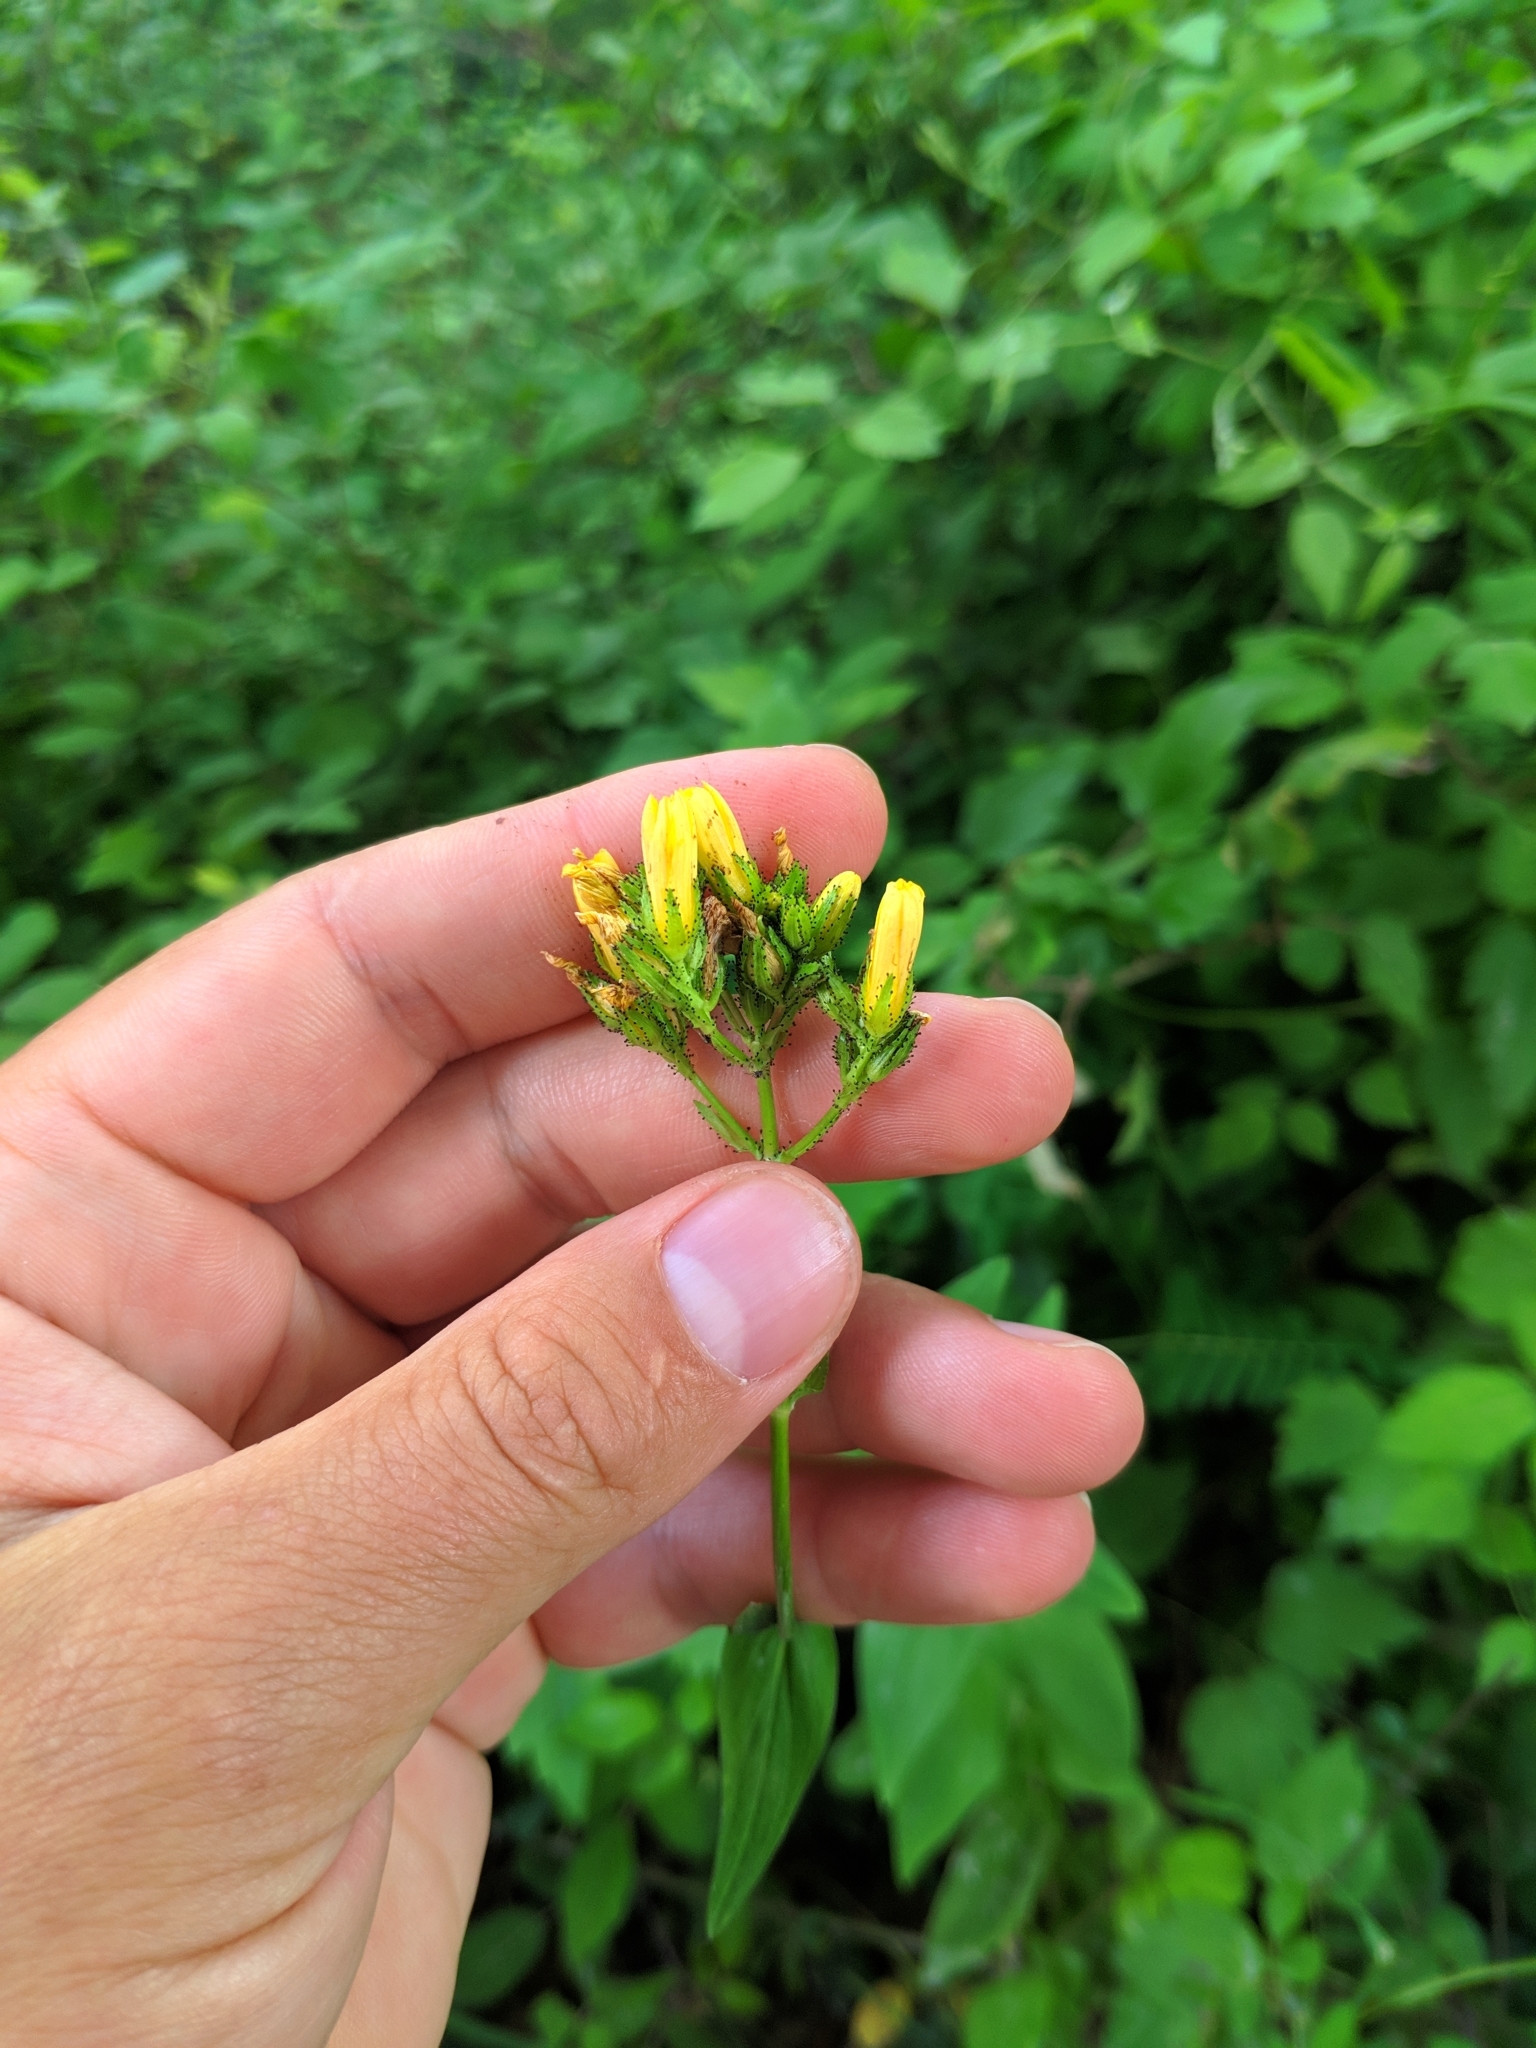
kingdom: Plantae
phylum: Tracheophyta
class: Magnoliopsida
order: Malpighiales
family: Hypericaceae
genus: Hypericum
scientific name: Hypericum montanum
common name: Pale st. john's-wort
